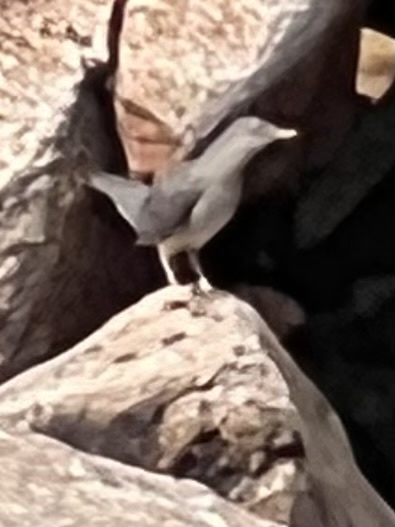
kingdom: Animalia
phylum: Chordata
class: Aves
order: Passeriformes
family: Cinclidae
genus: Cinclus
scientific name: Cinclus mexicanus
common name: American dipper
